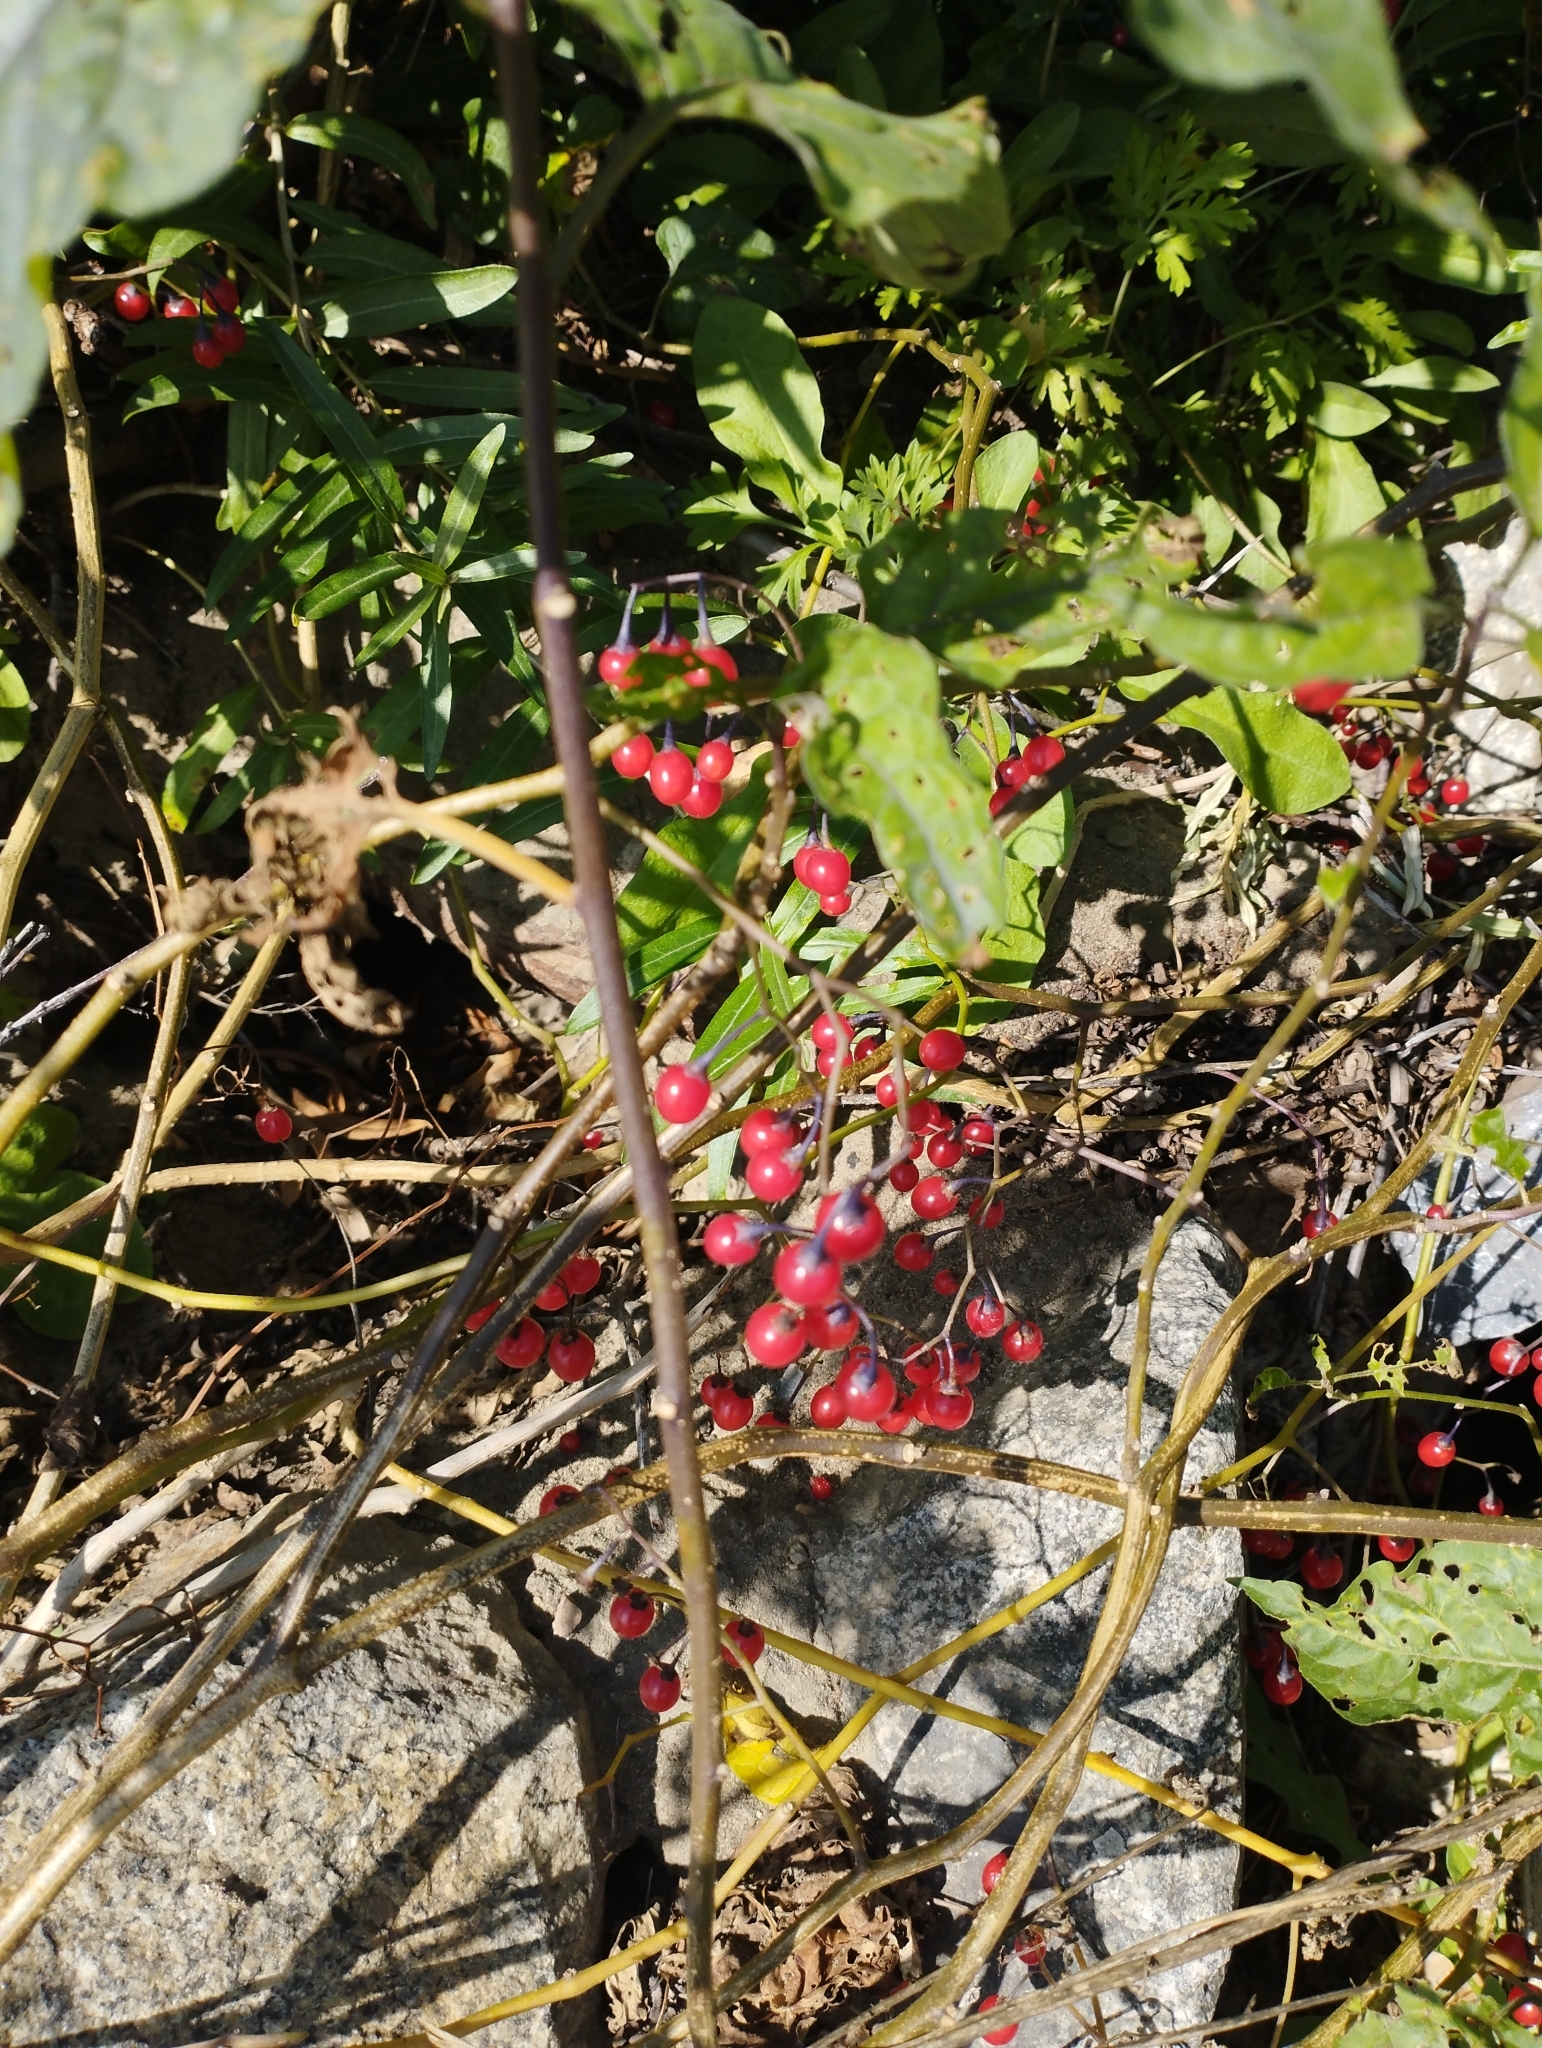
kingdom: Plantae
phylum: Tracheophyta
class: Magnoliopsida
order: Solanales
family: Solanaceae
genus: Solanum
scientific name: Solanum dulcamara
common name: Climbing nightshade
